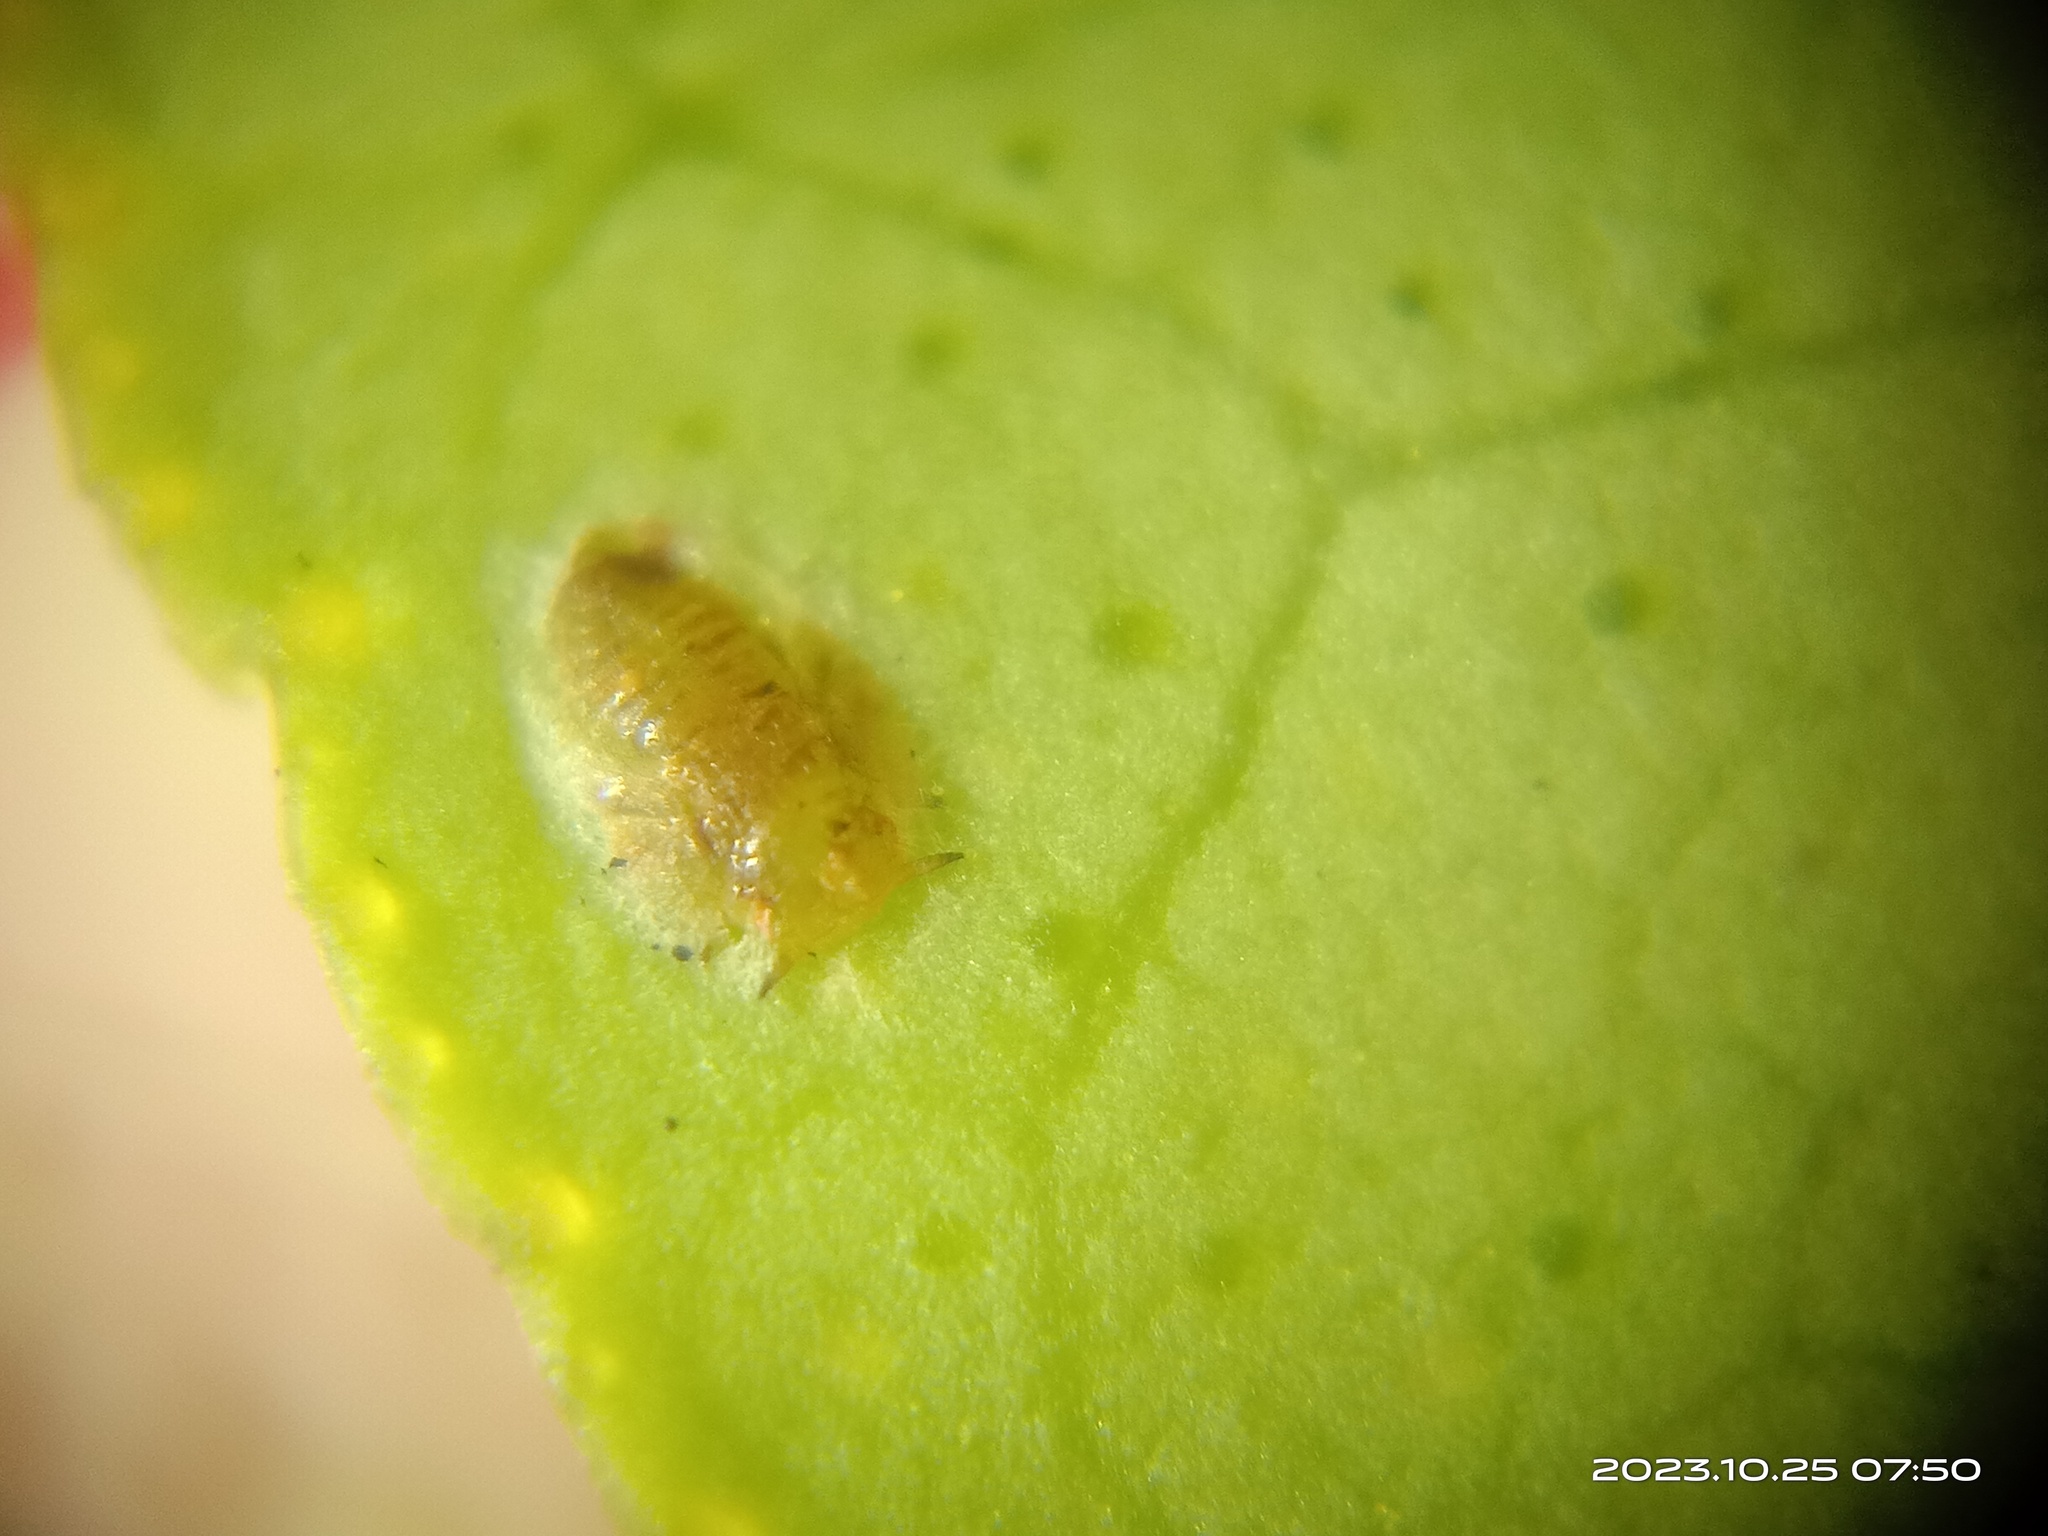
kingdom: Animalia
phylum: Arthropoda
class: Insecta
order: Hemiptera
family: Liviidae
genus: Diaphorina
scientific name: Diaphorina citri
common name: Asian citrus psyllid
